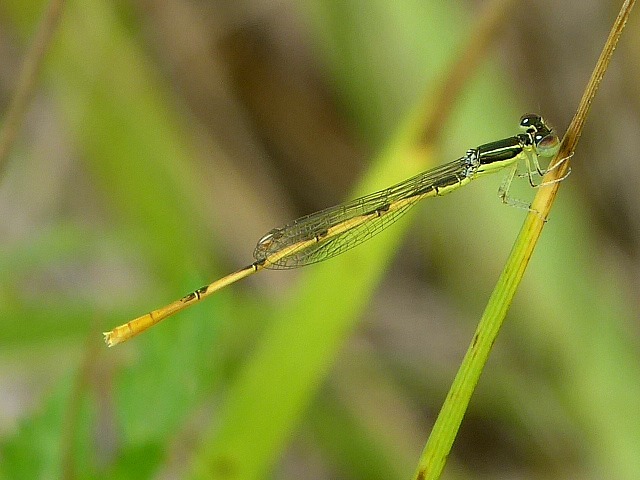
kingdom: Animalia
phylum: Arthropoda
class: Insecta
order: Odonata
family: Coenagrionidae
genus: Ischnura
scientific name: Ischnura hastata
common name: Citrine forktail
